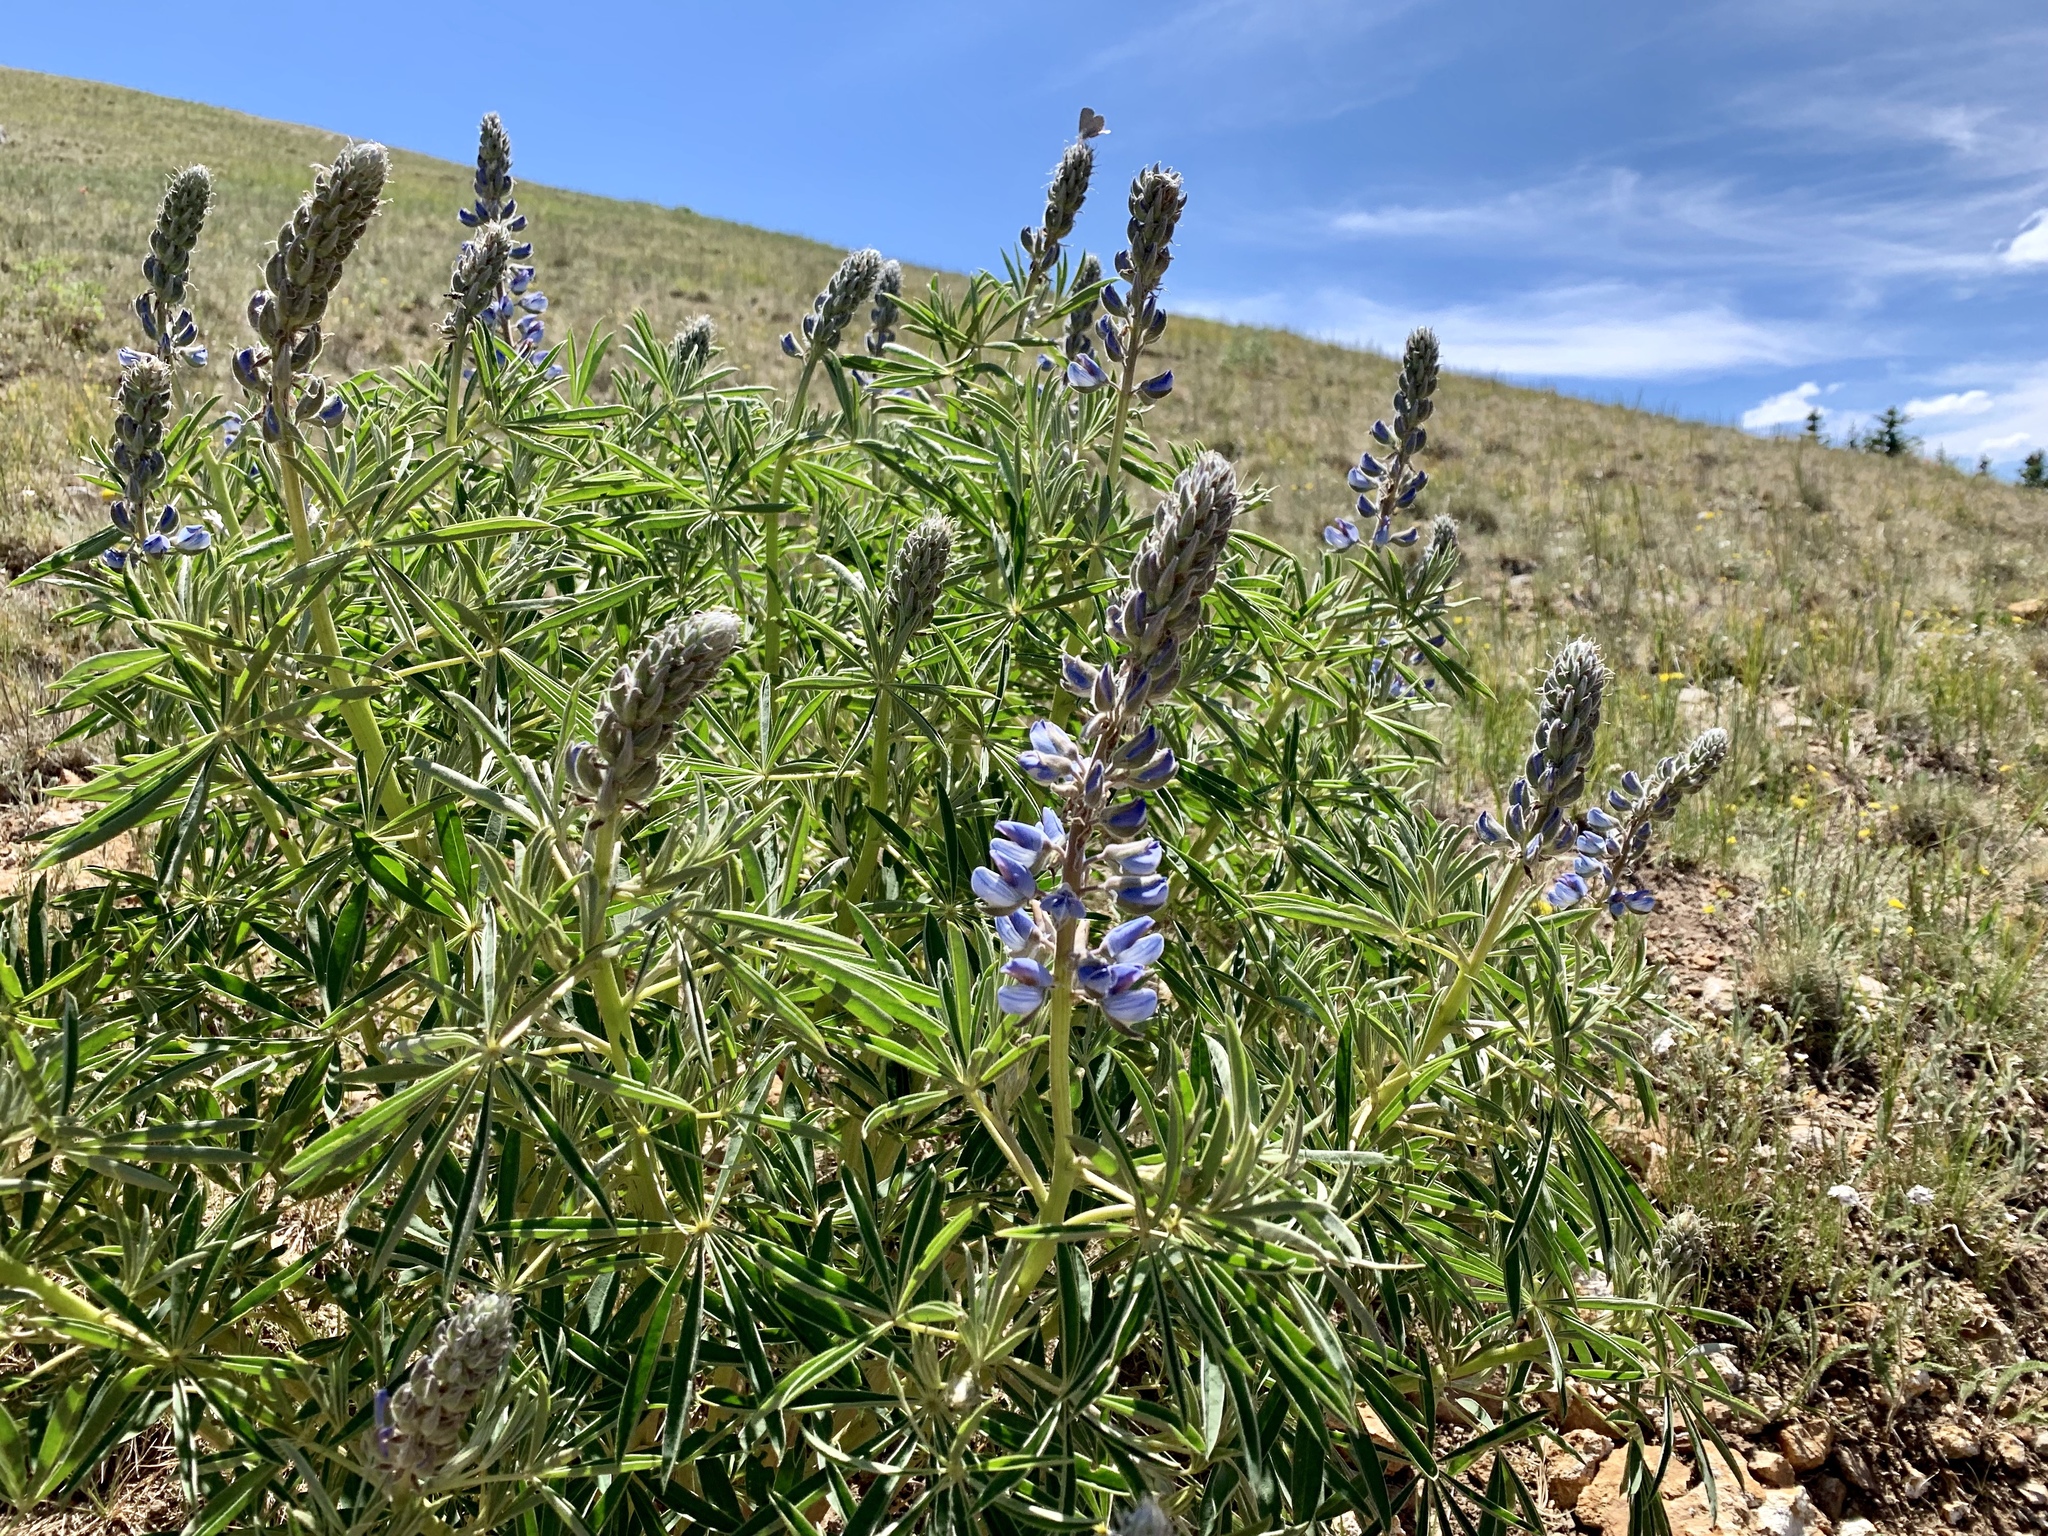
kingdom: Plantae
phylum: Tracheophyta
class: Magnoliopsida
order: Fabales
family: Fabaceae
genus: Lupinus
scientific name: Lupinus sierrae-blancae
